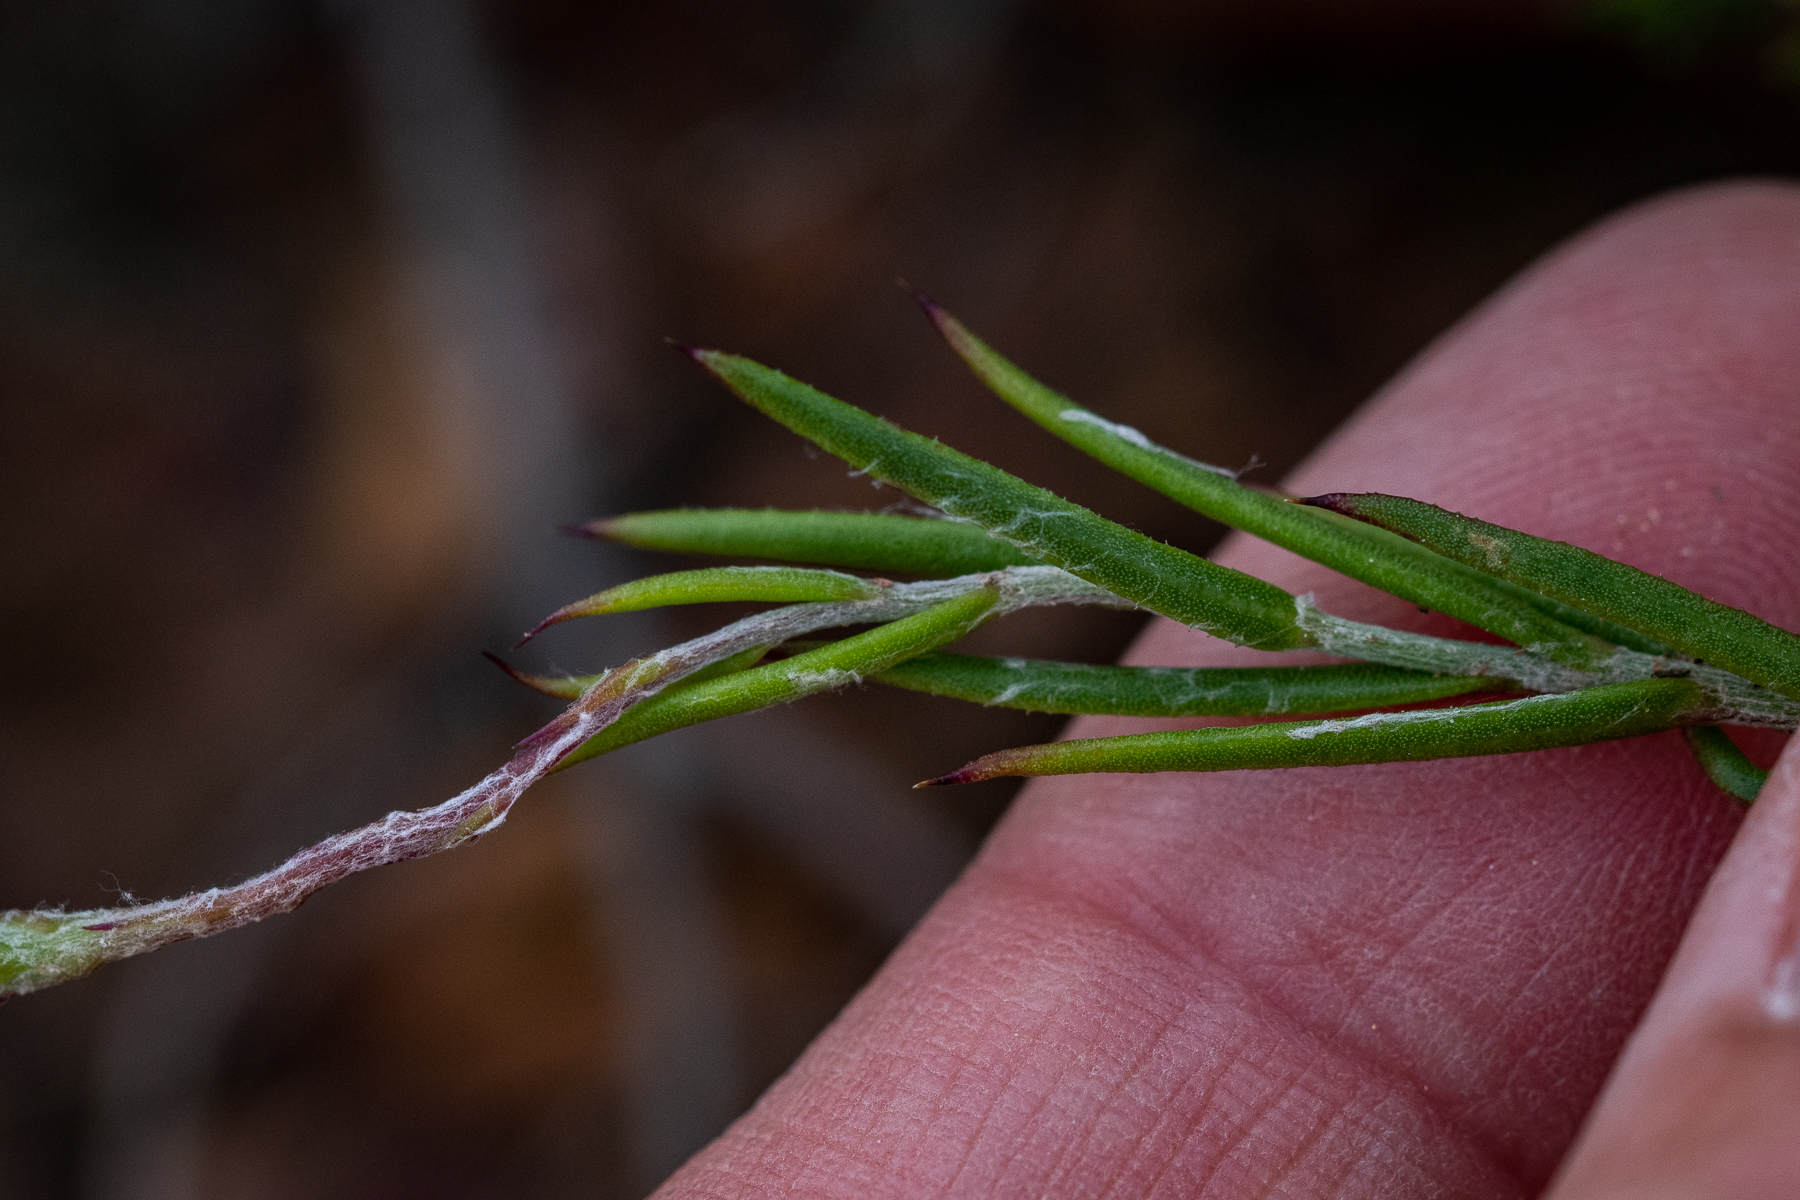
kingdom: Plantae
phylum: Tracheophyta
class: Magnoliopsida
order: Asterales
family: Asteraceae
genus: Osteospermum
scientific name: Osteospermum aciphyllum
